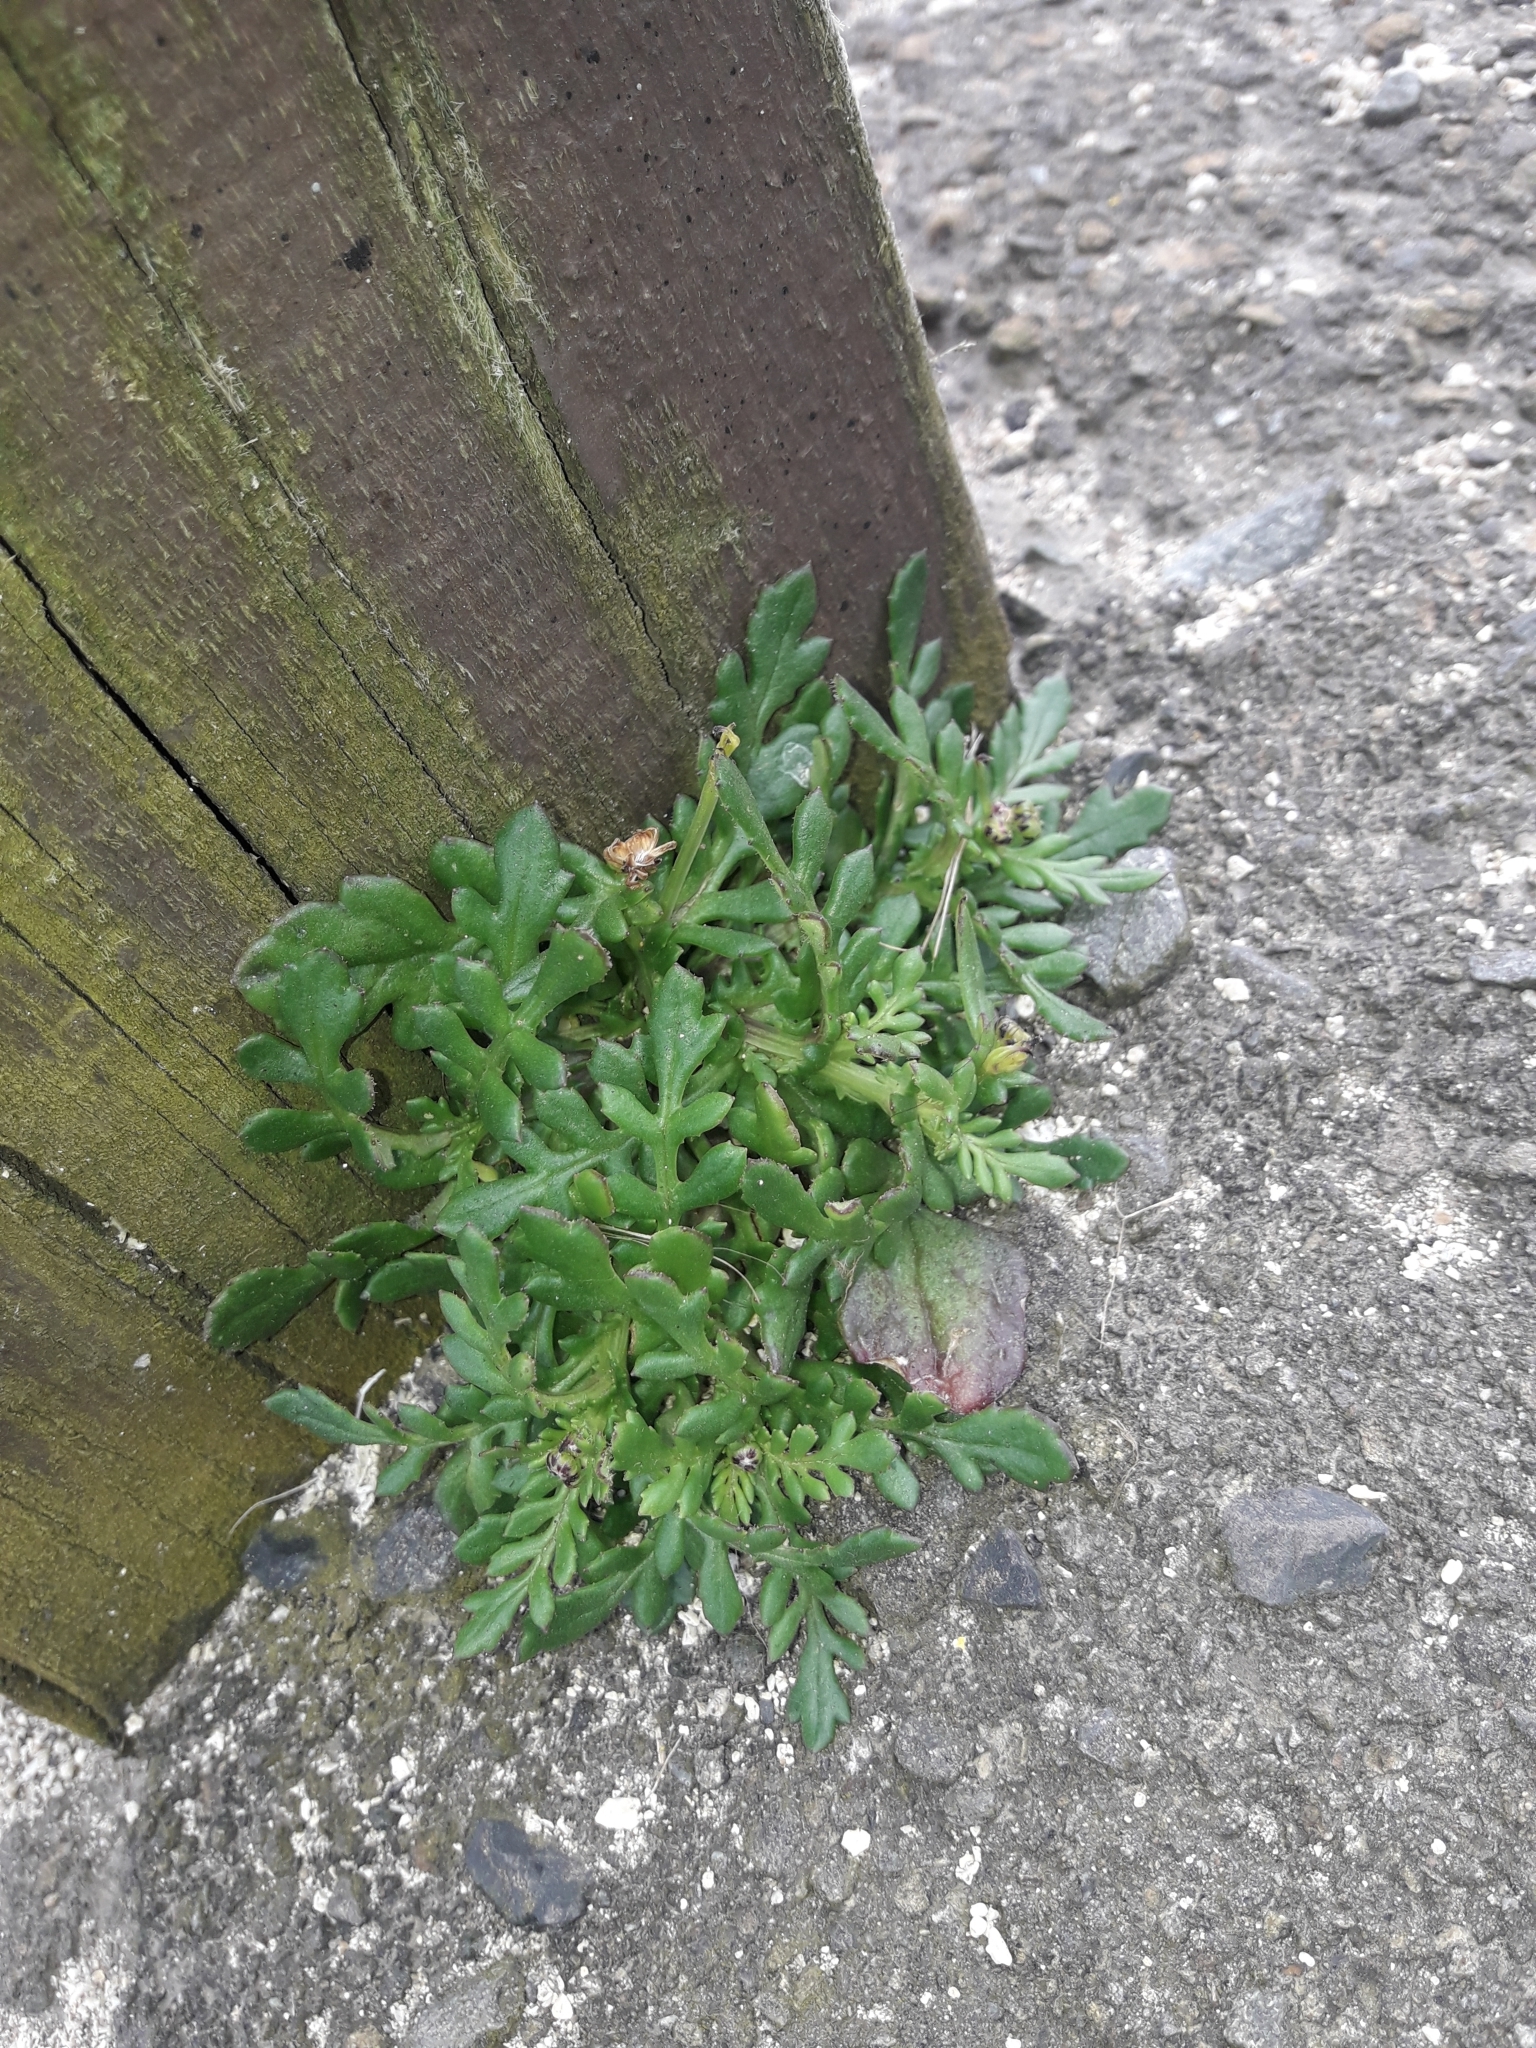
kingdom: Plantae
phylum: Tracheophyta
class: Magnoliopsida
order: Asterales
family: Asteraceae
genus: Senecio
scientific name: Senecio lautus
